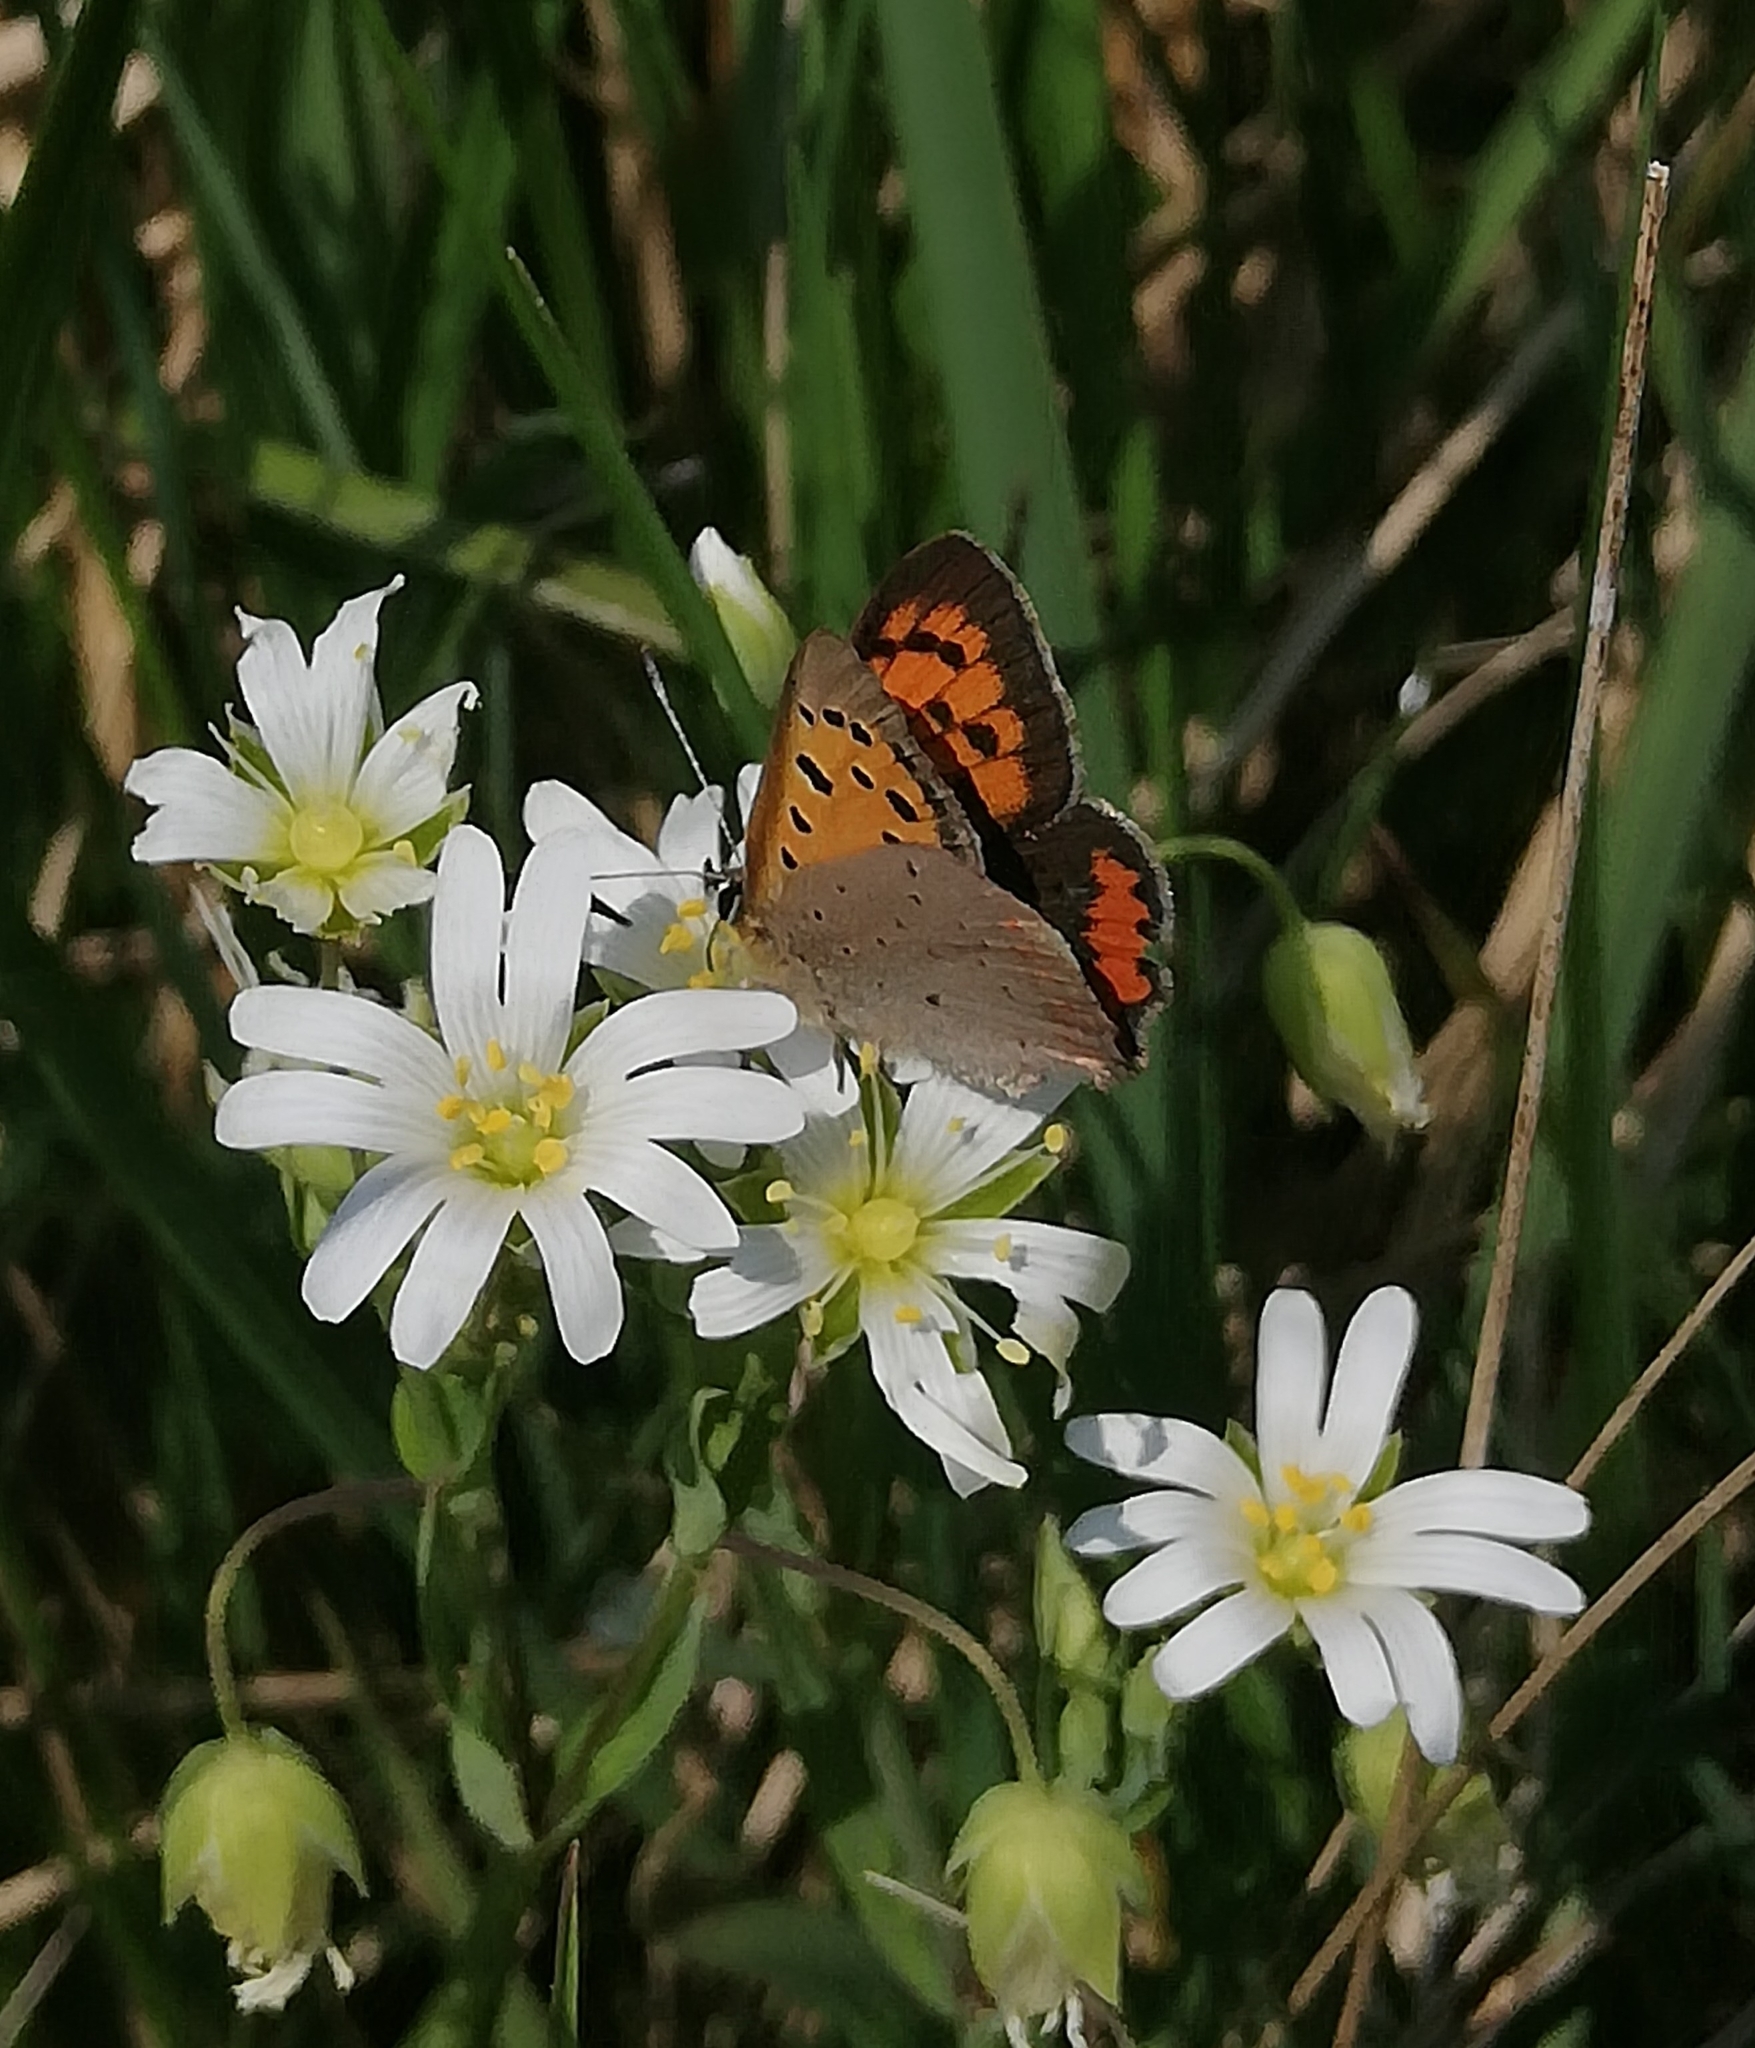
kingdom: Animalia
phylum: Arthropoda
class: Insecta
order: Lepidoptera
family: Lycaenidae
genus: Lycaena
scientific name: Lycaena phlaeas
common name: Small copper
